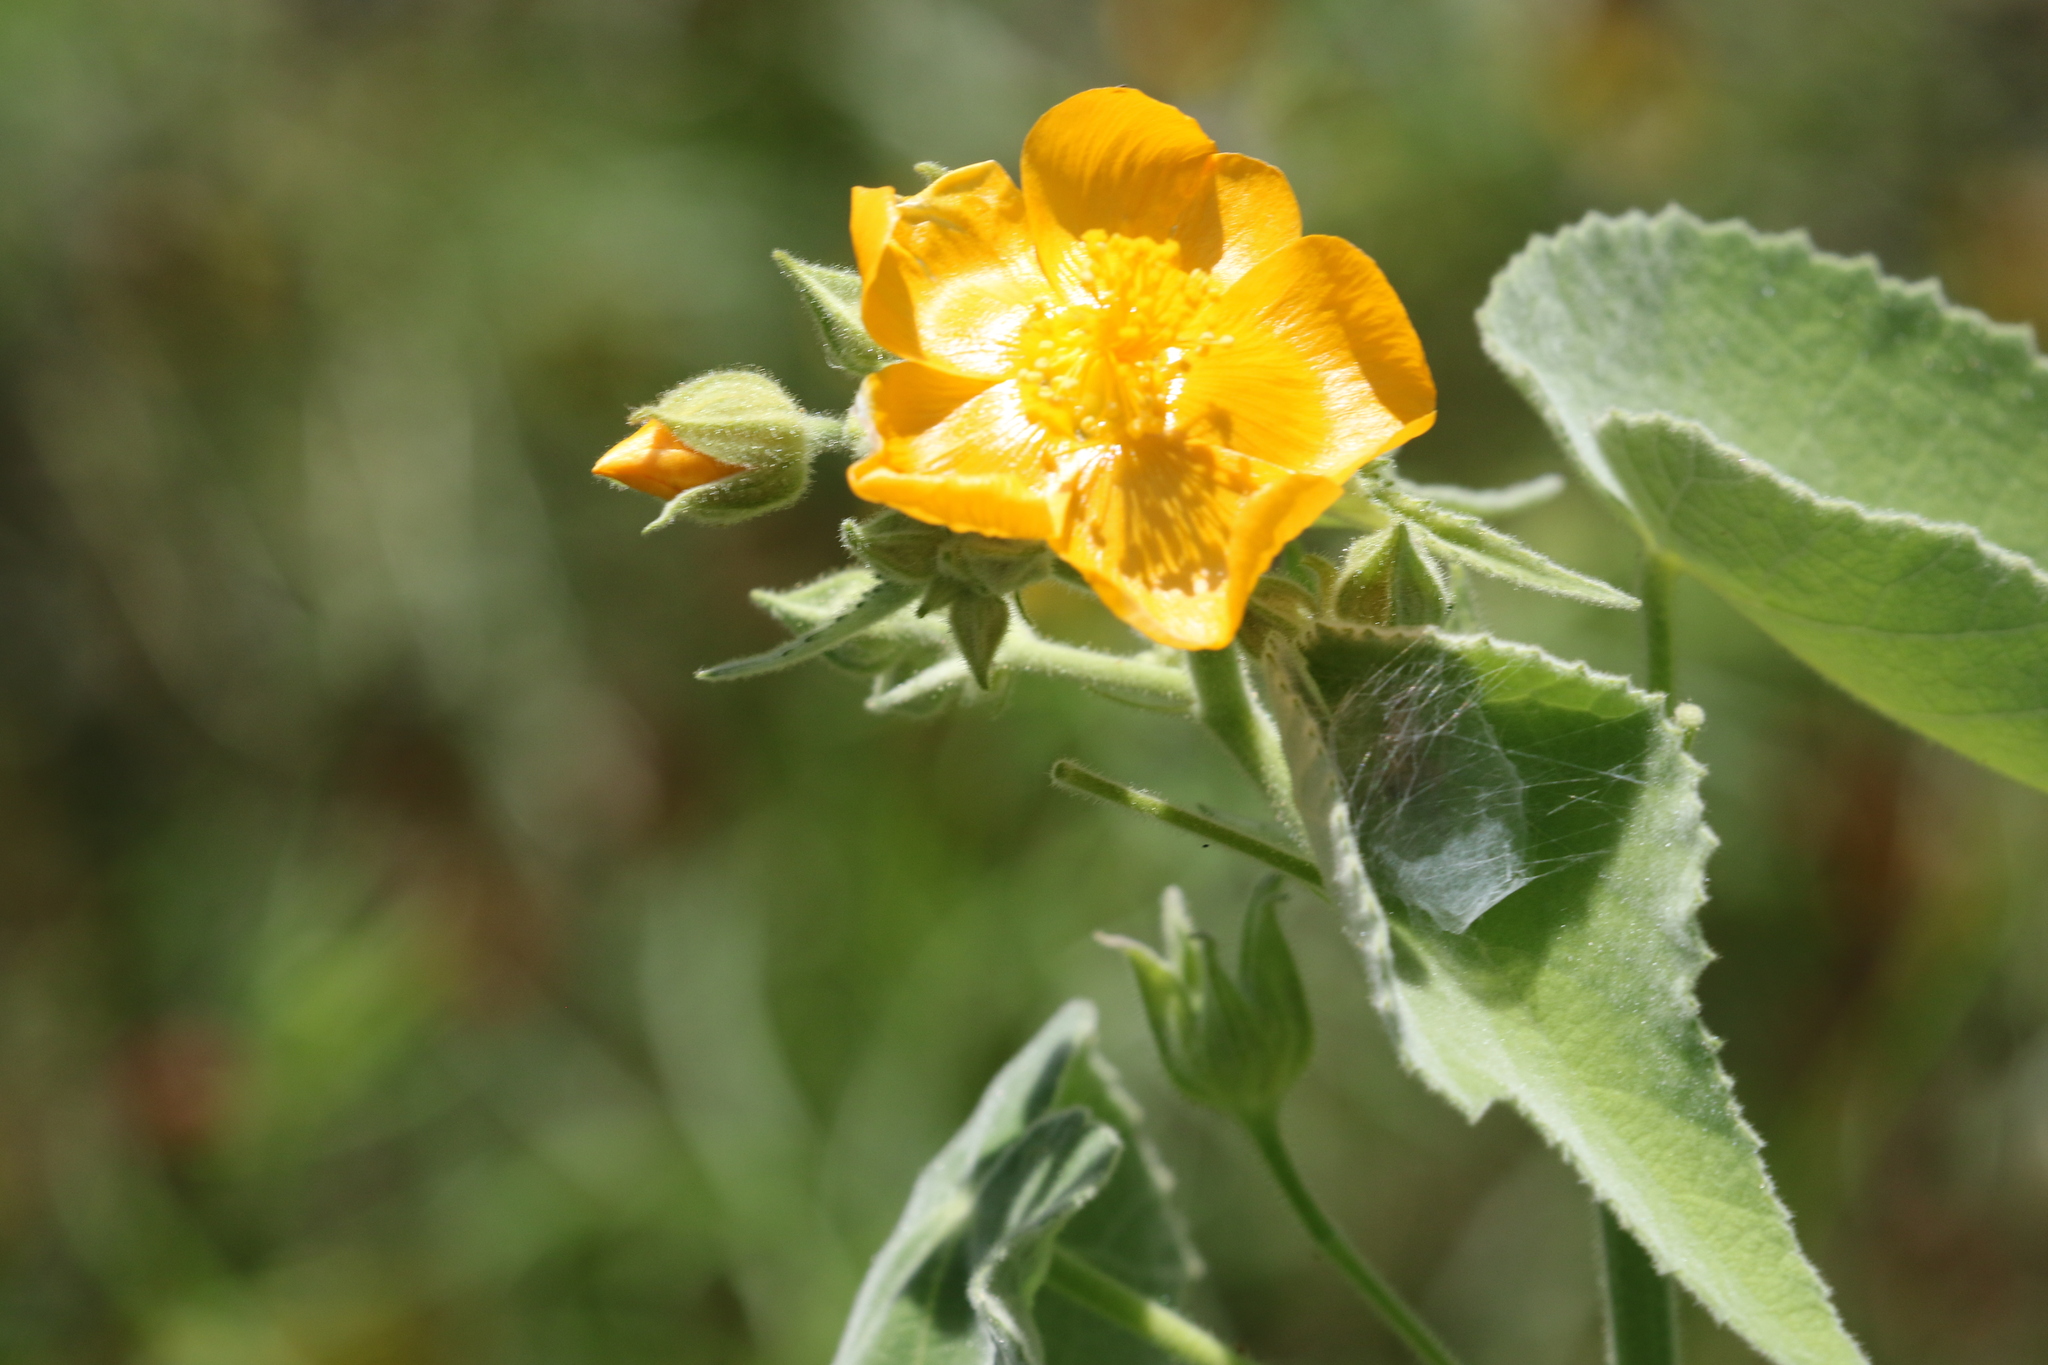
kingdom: Plantae
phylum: Tracheophyta
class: Magnoliopsida
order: Malvales
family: Malvaceae
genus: Allowissadula
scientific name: Allowissadula holosericea
